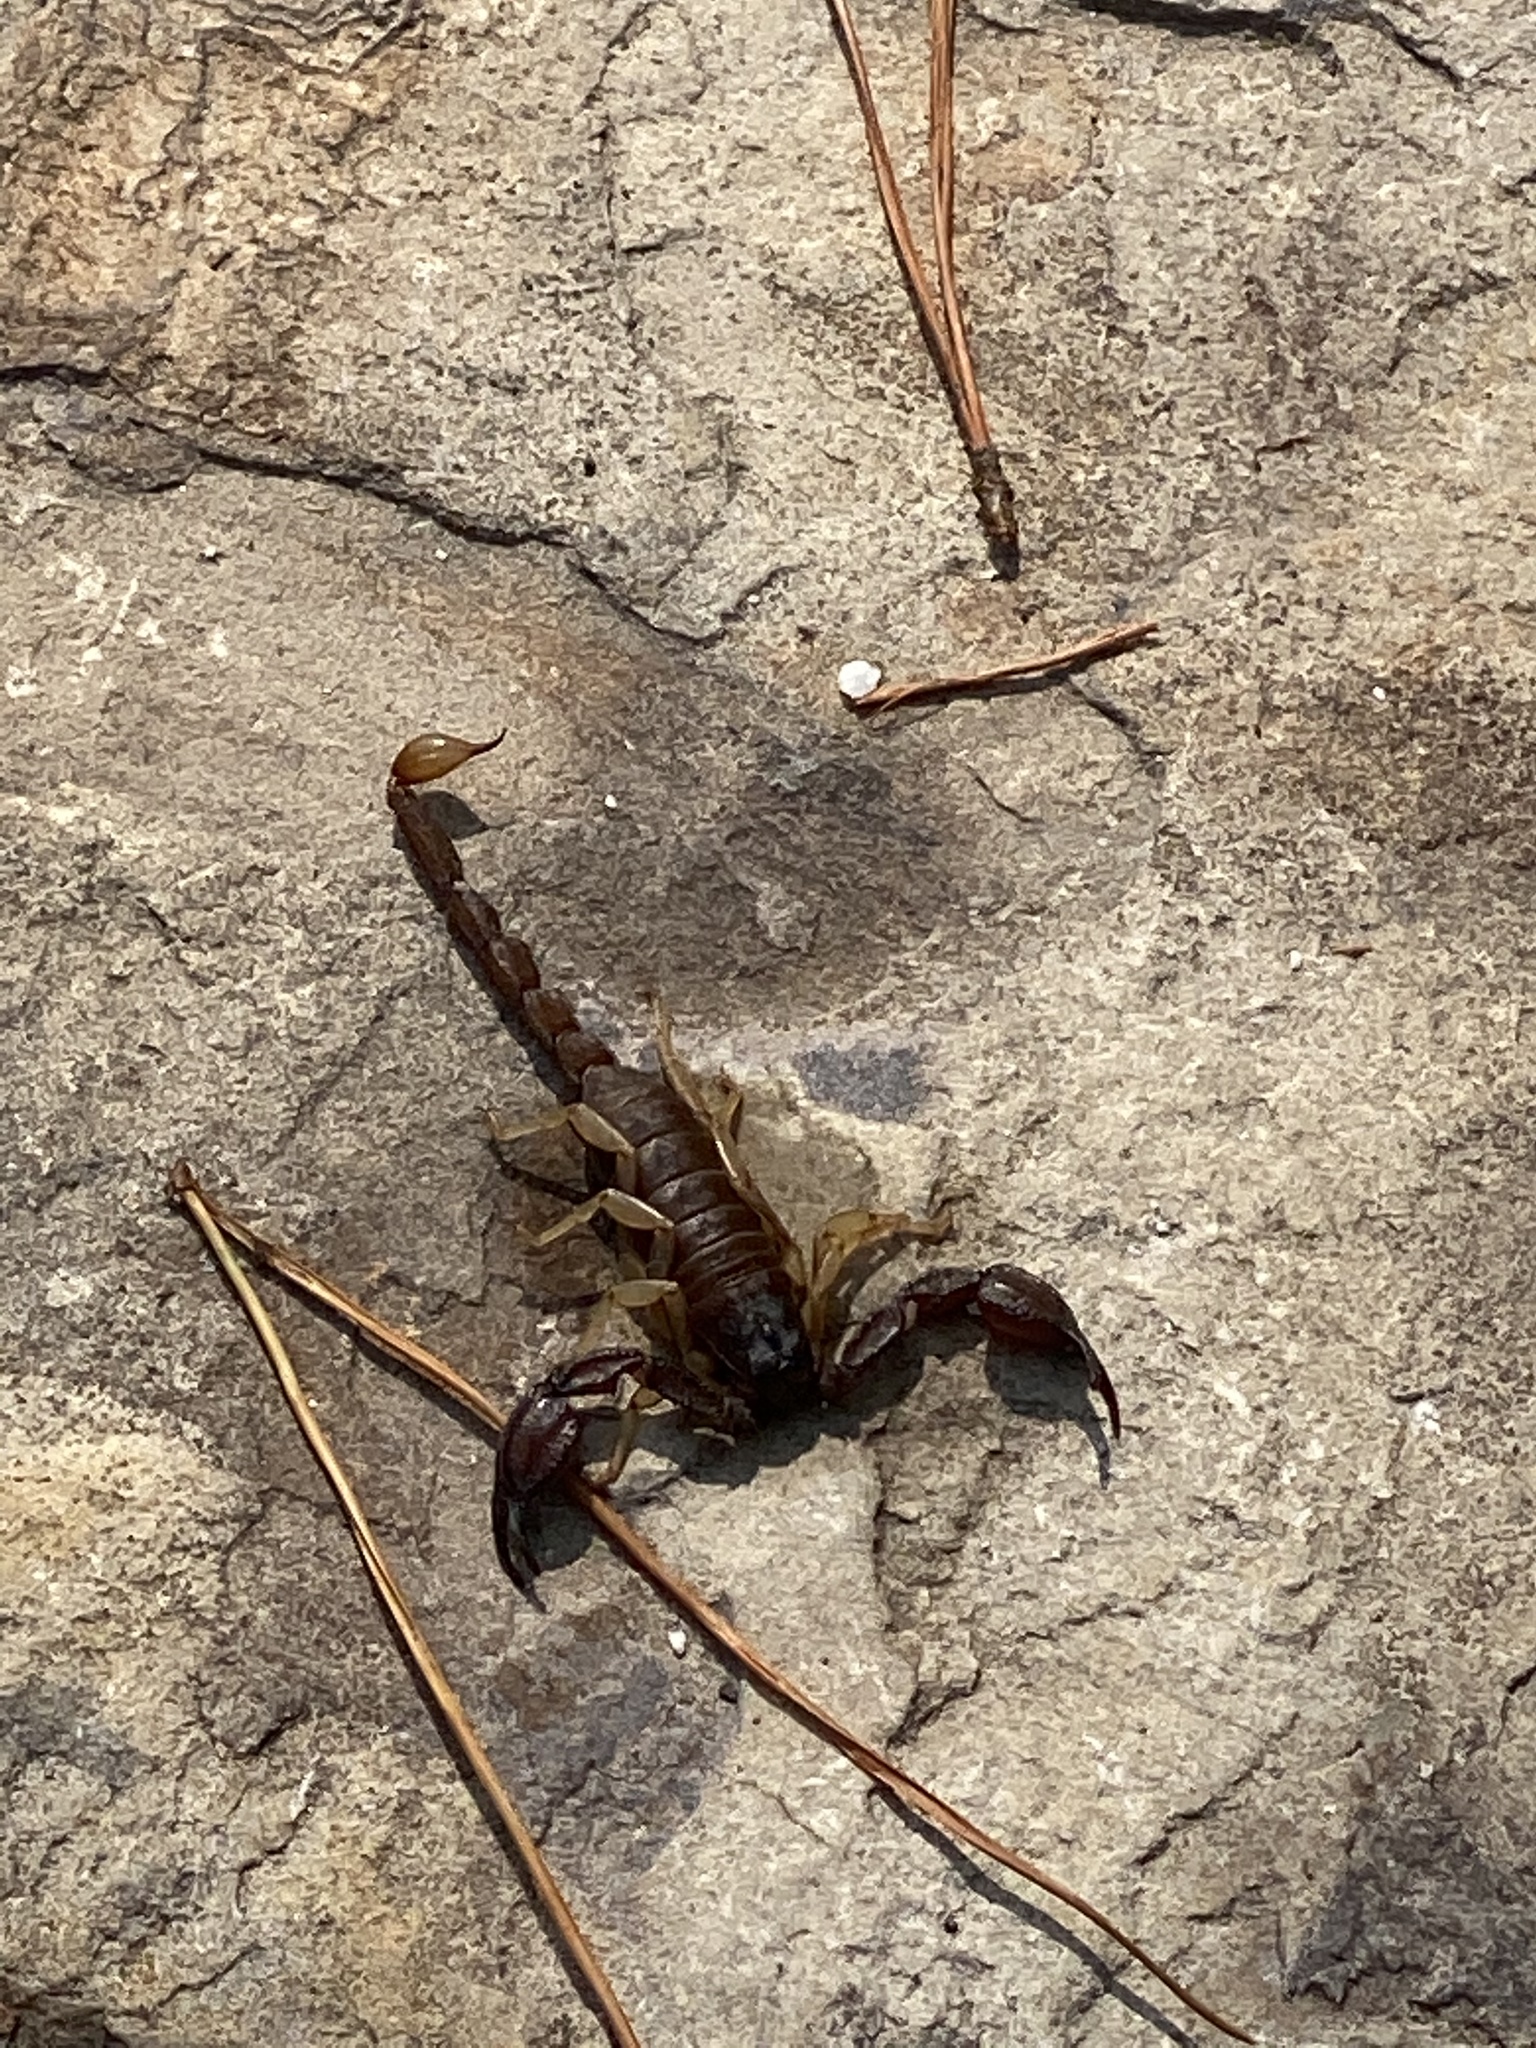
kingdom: Animalia
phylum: Arthropoda
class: Arachnida
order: Scorpiones
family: Chactidae
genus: Uroctonus
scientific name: Uroctonus mordax
